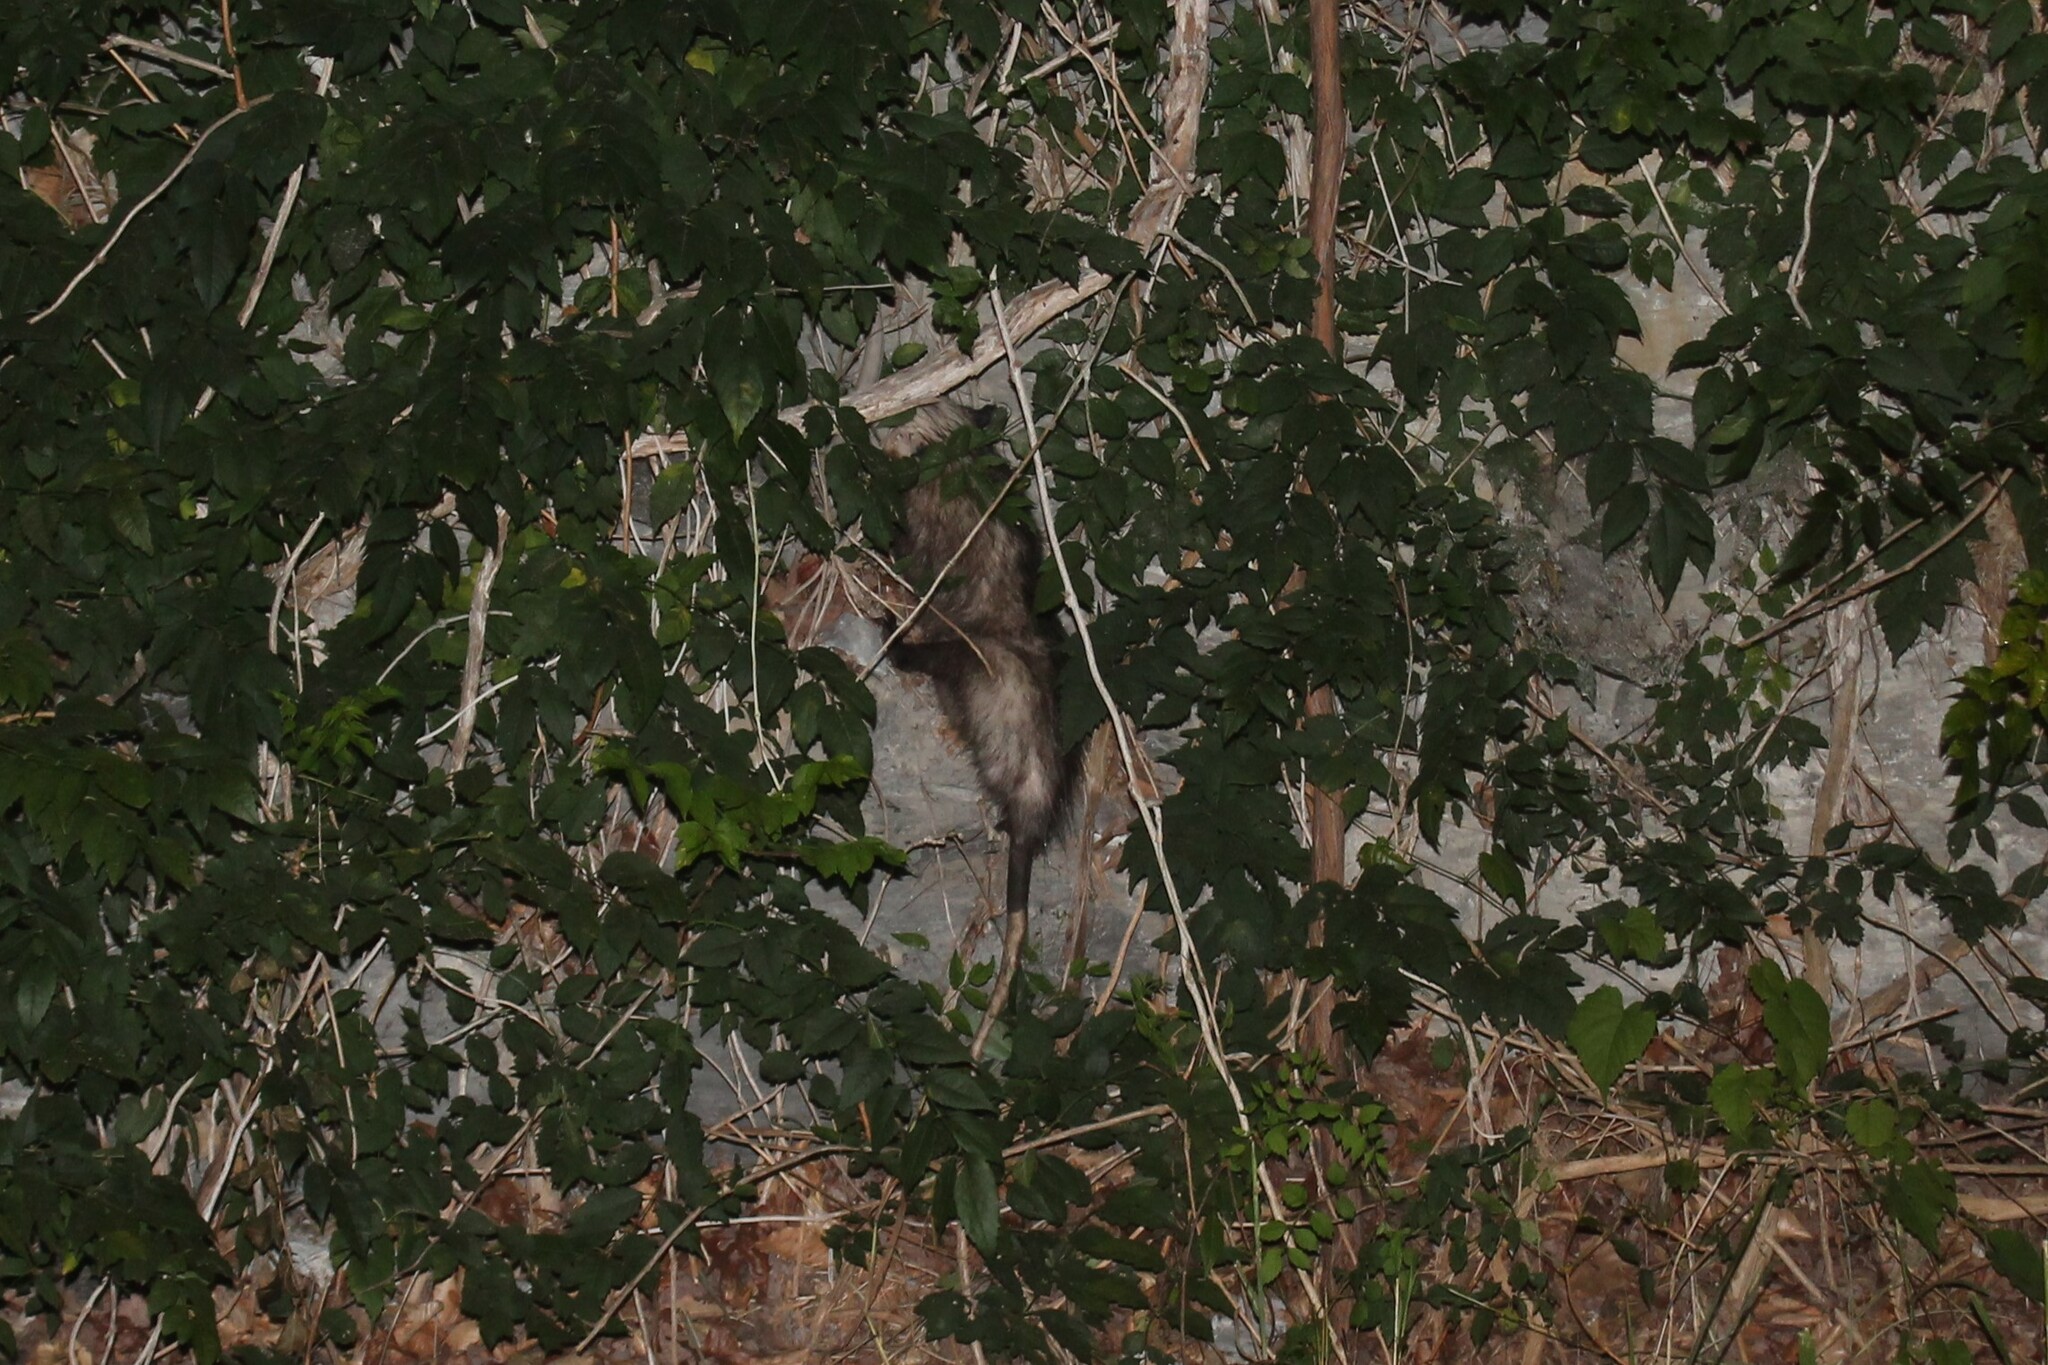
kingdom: Animalia
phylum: Chordata
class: Mammalia
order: Didelphimorphia
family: Didelphidae
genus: Didelphis
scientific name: Didelphis virginiana
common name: Virginia opossum
